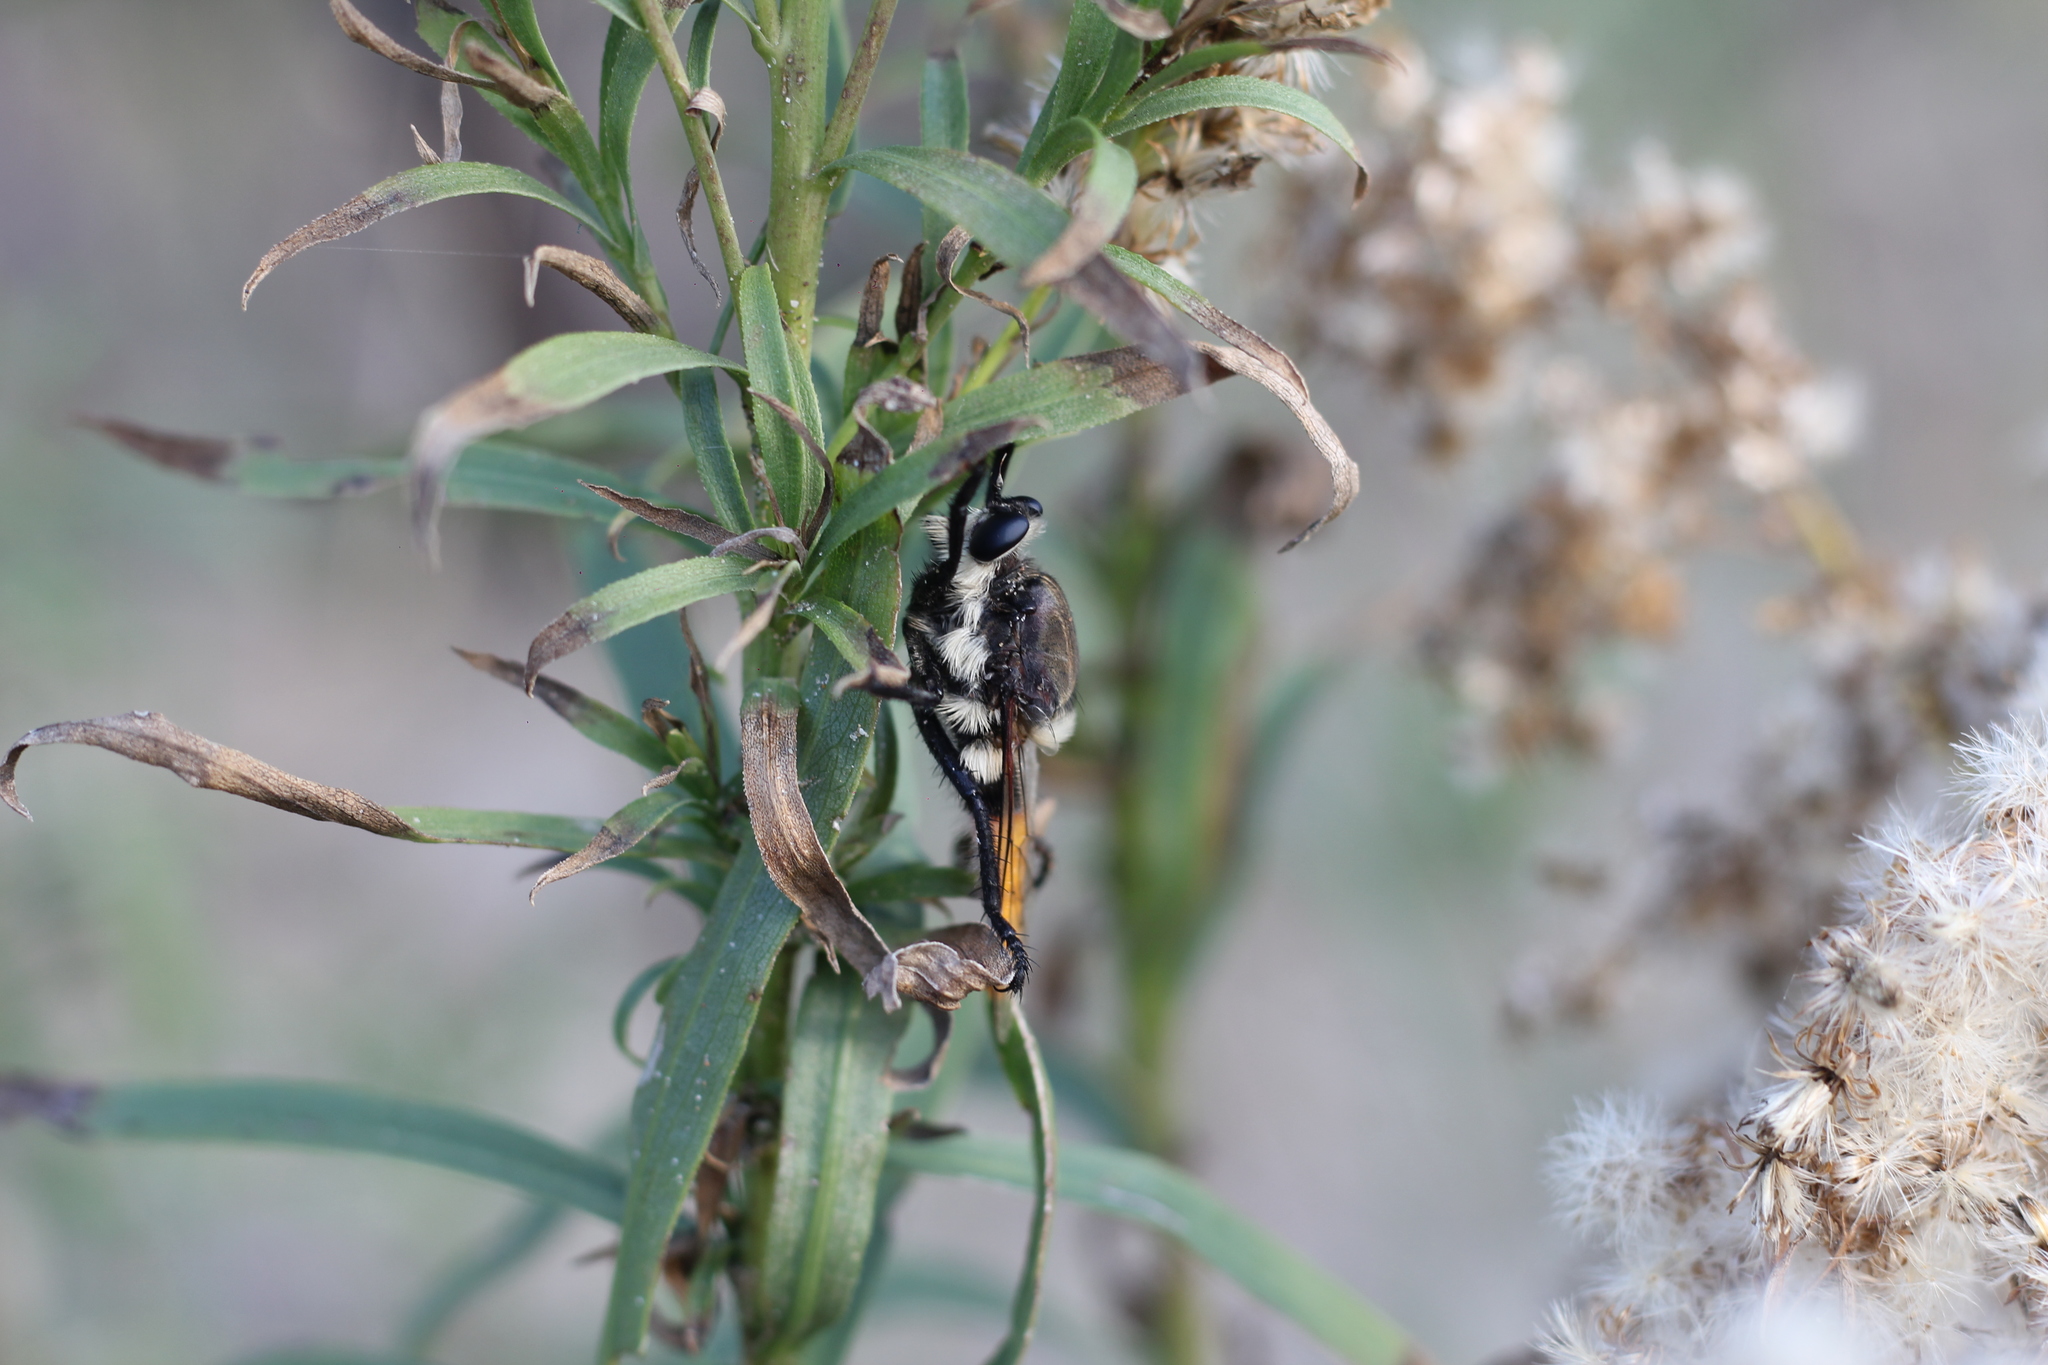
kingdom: Animalia
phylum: Arthropoda
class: Insecta
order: Diptera
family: Asilidae
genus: Eccritosia
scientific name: Eccritosia rubriventris
